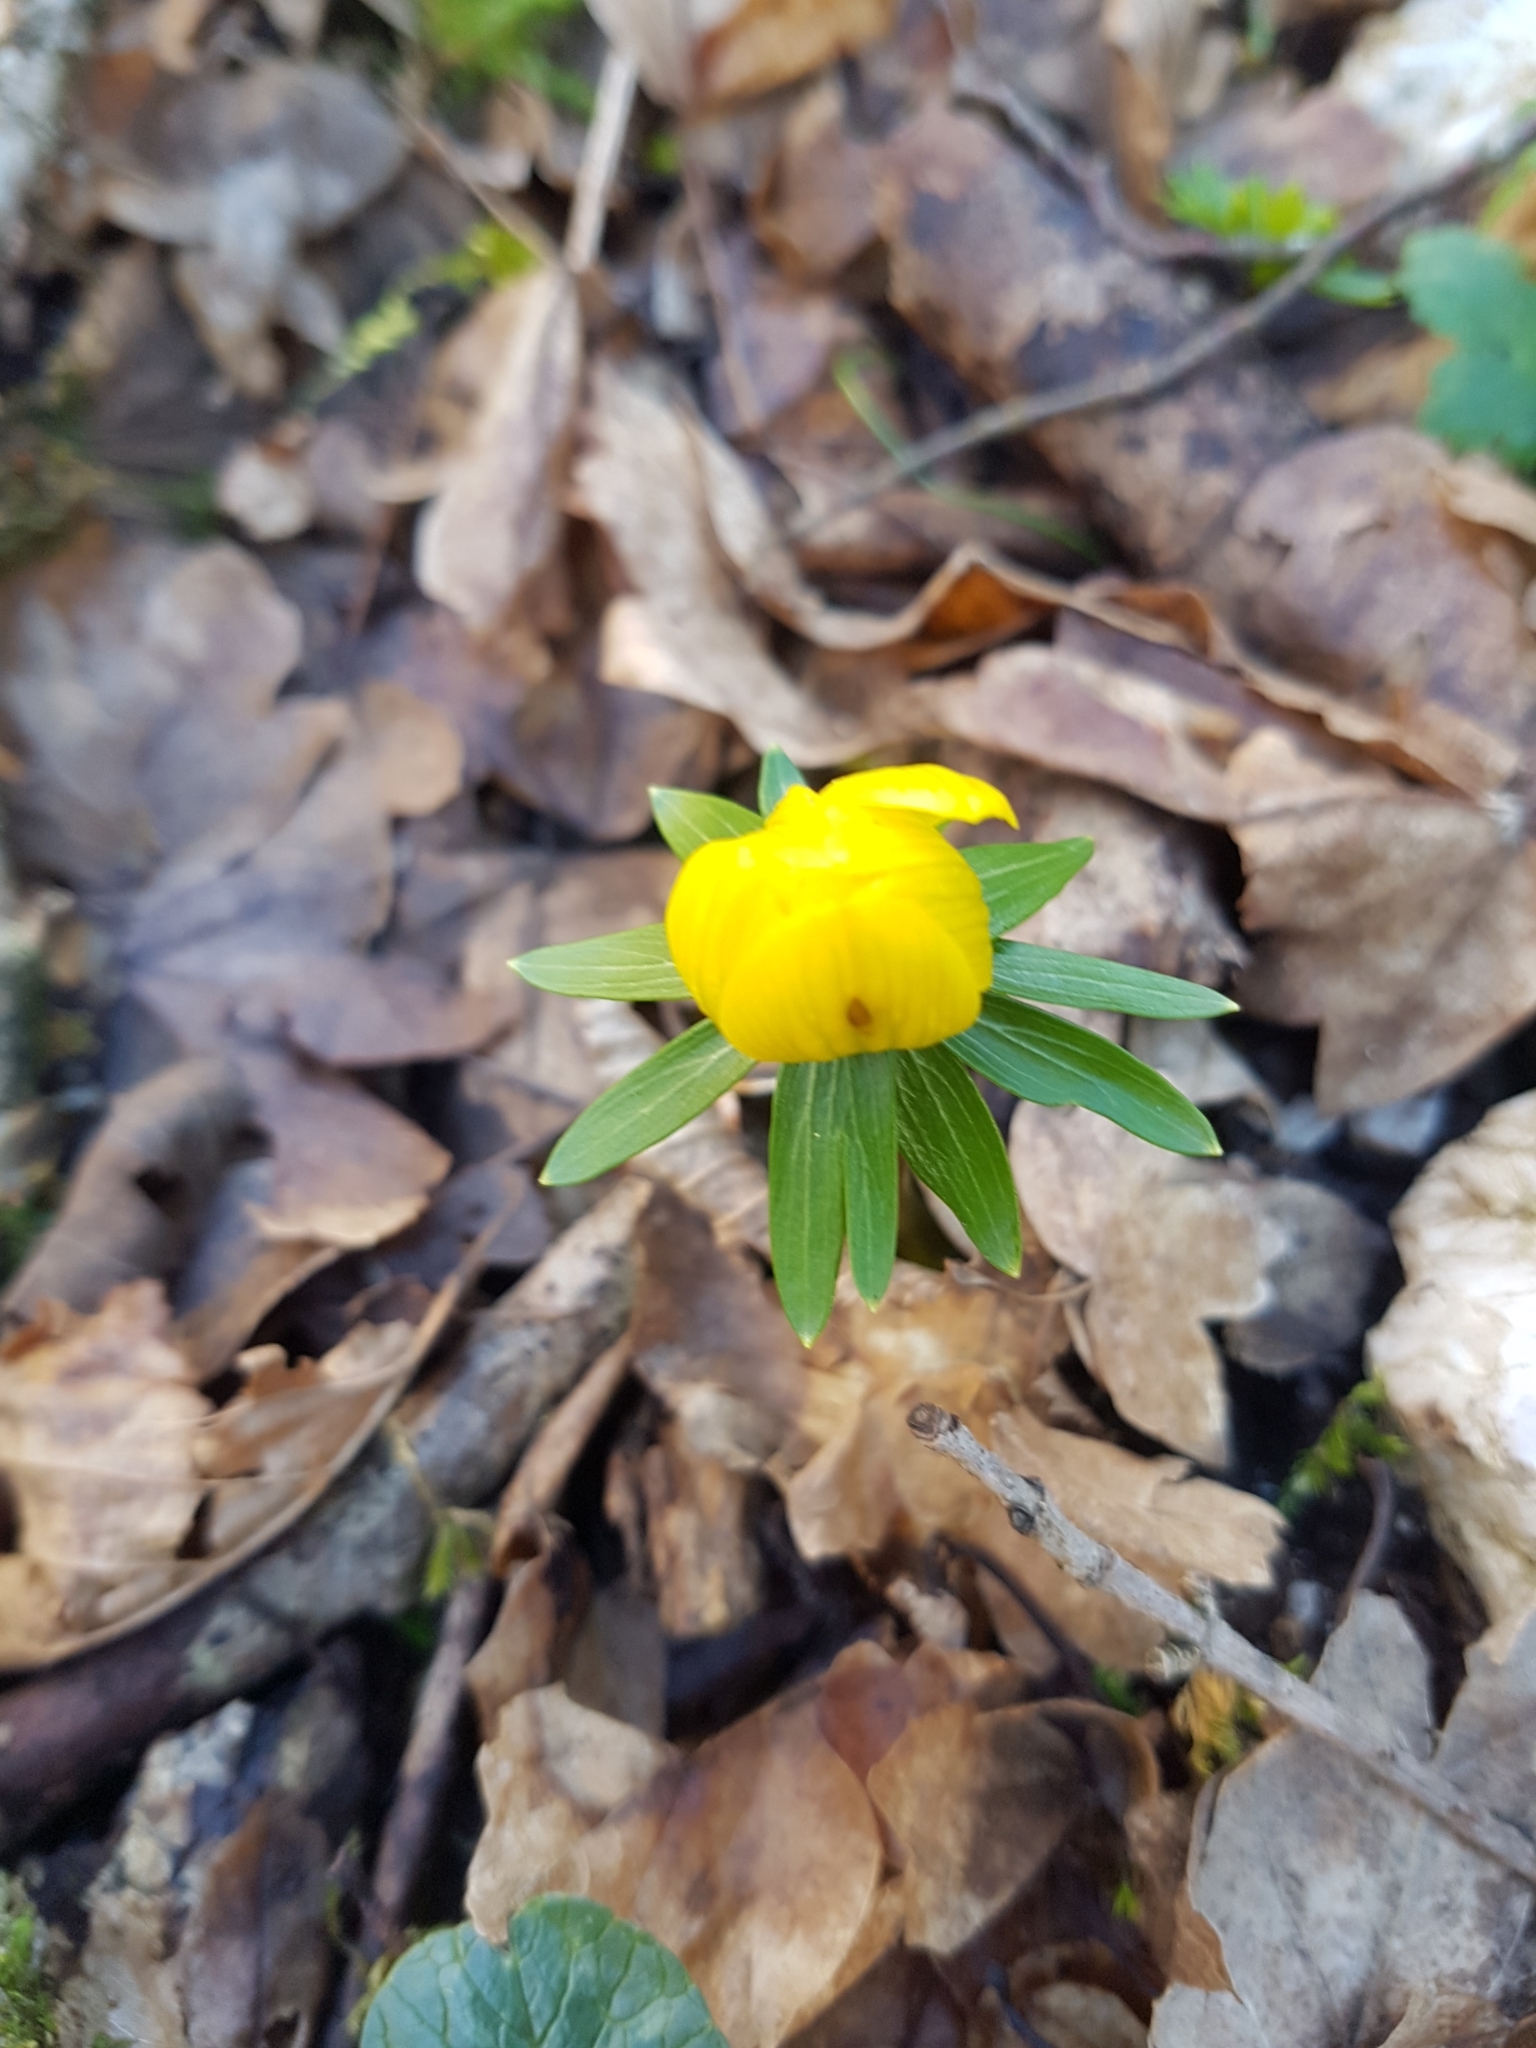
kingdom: Plantae
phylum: Tracheophyta
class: Magnoliopsida
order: Ranunculales
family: Ranunculaceae
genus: Eranthis
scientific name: Eranthis hyemalis
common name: Winter aconite
